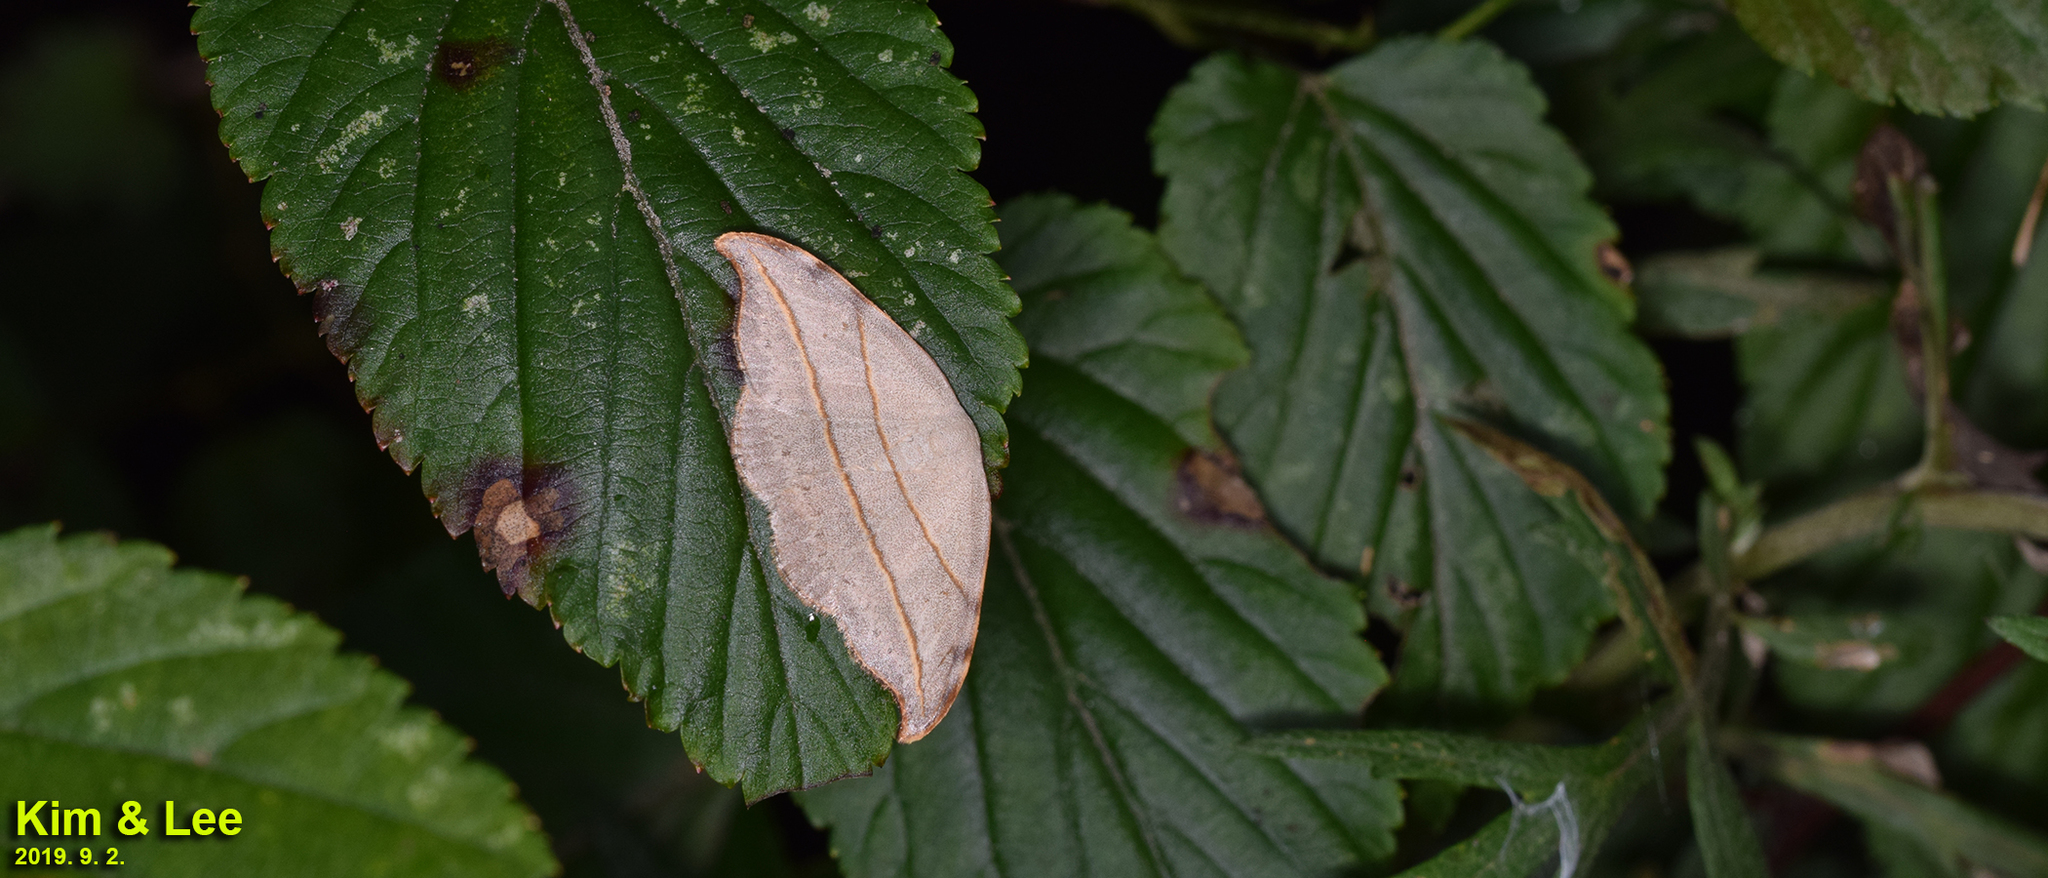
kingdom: Animalia
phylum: Arthropoda
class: Insecta
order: Lepidoptera
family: Drepanidae
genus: Nordstromia
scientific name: Nordstromia japonica
